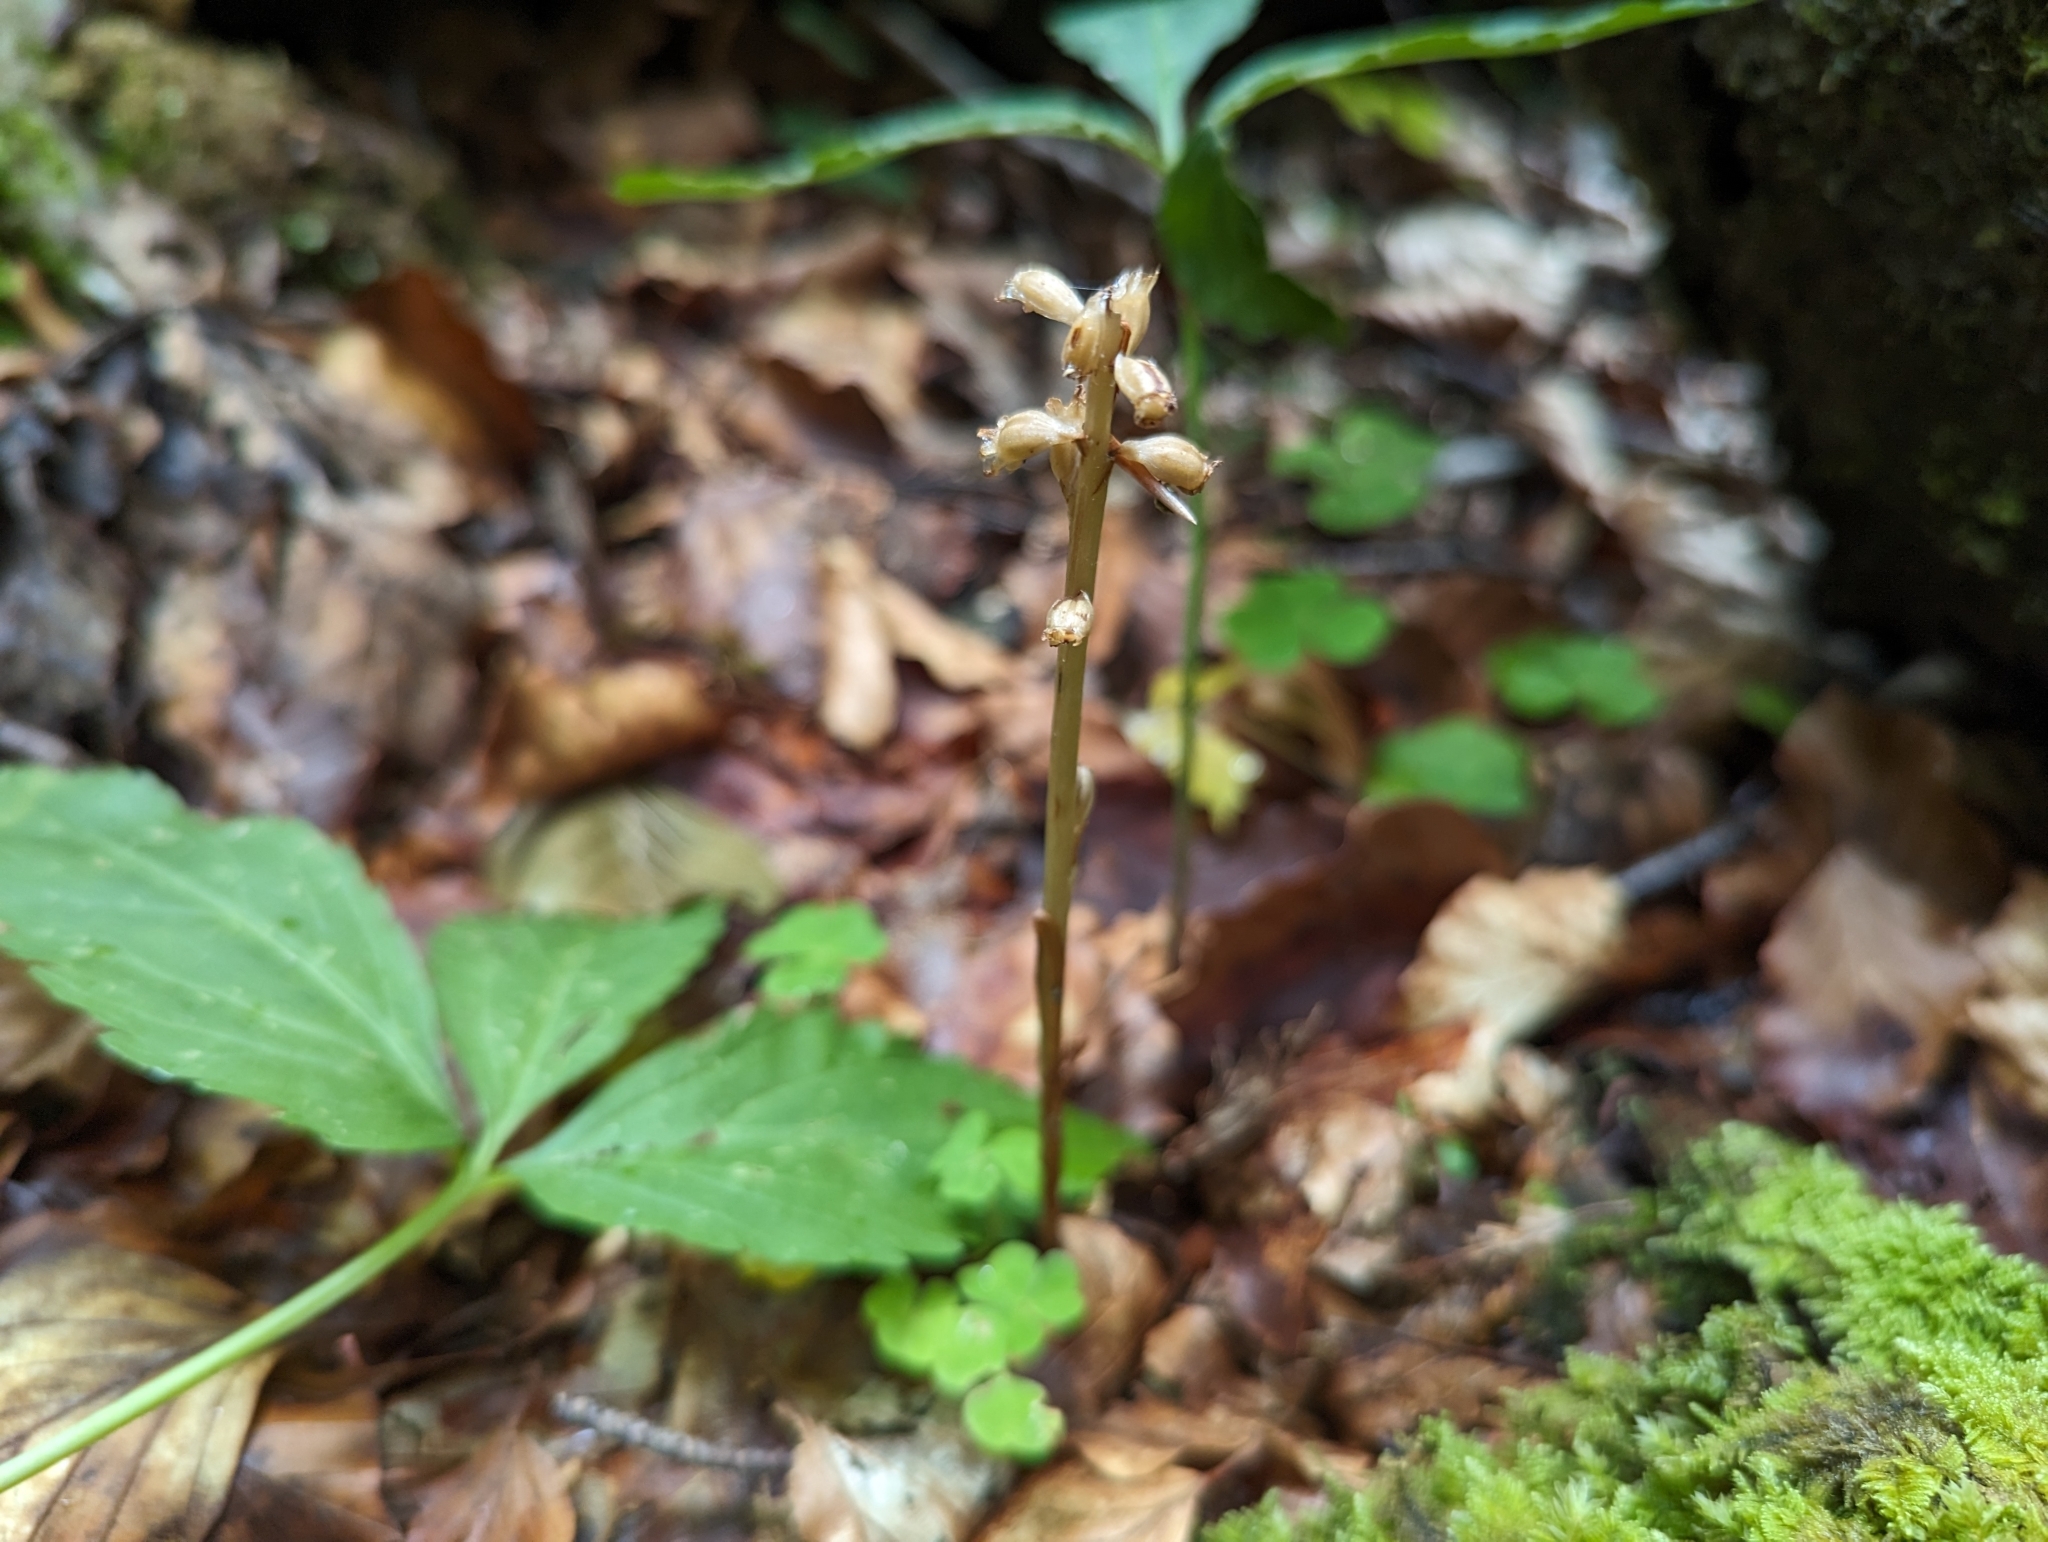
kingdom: Plantae
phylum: Tracheophyta
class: Liliopsida
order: Asparagales
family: Orchidaceae
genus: Neottia
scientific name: Neottia nidus-avis
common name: Bird's-nest orchid
